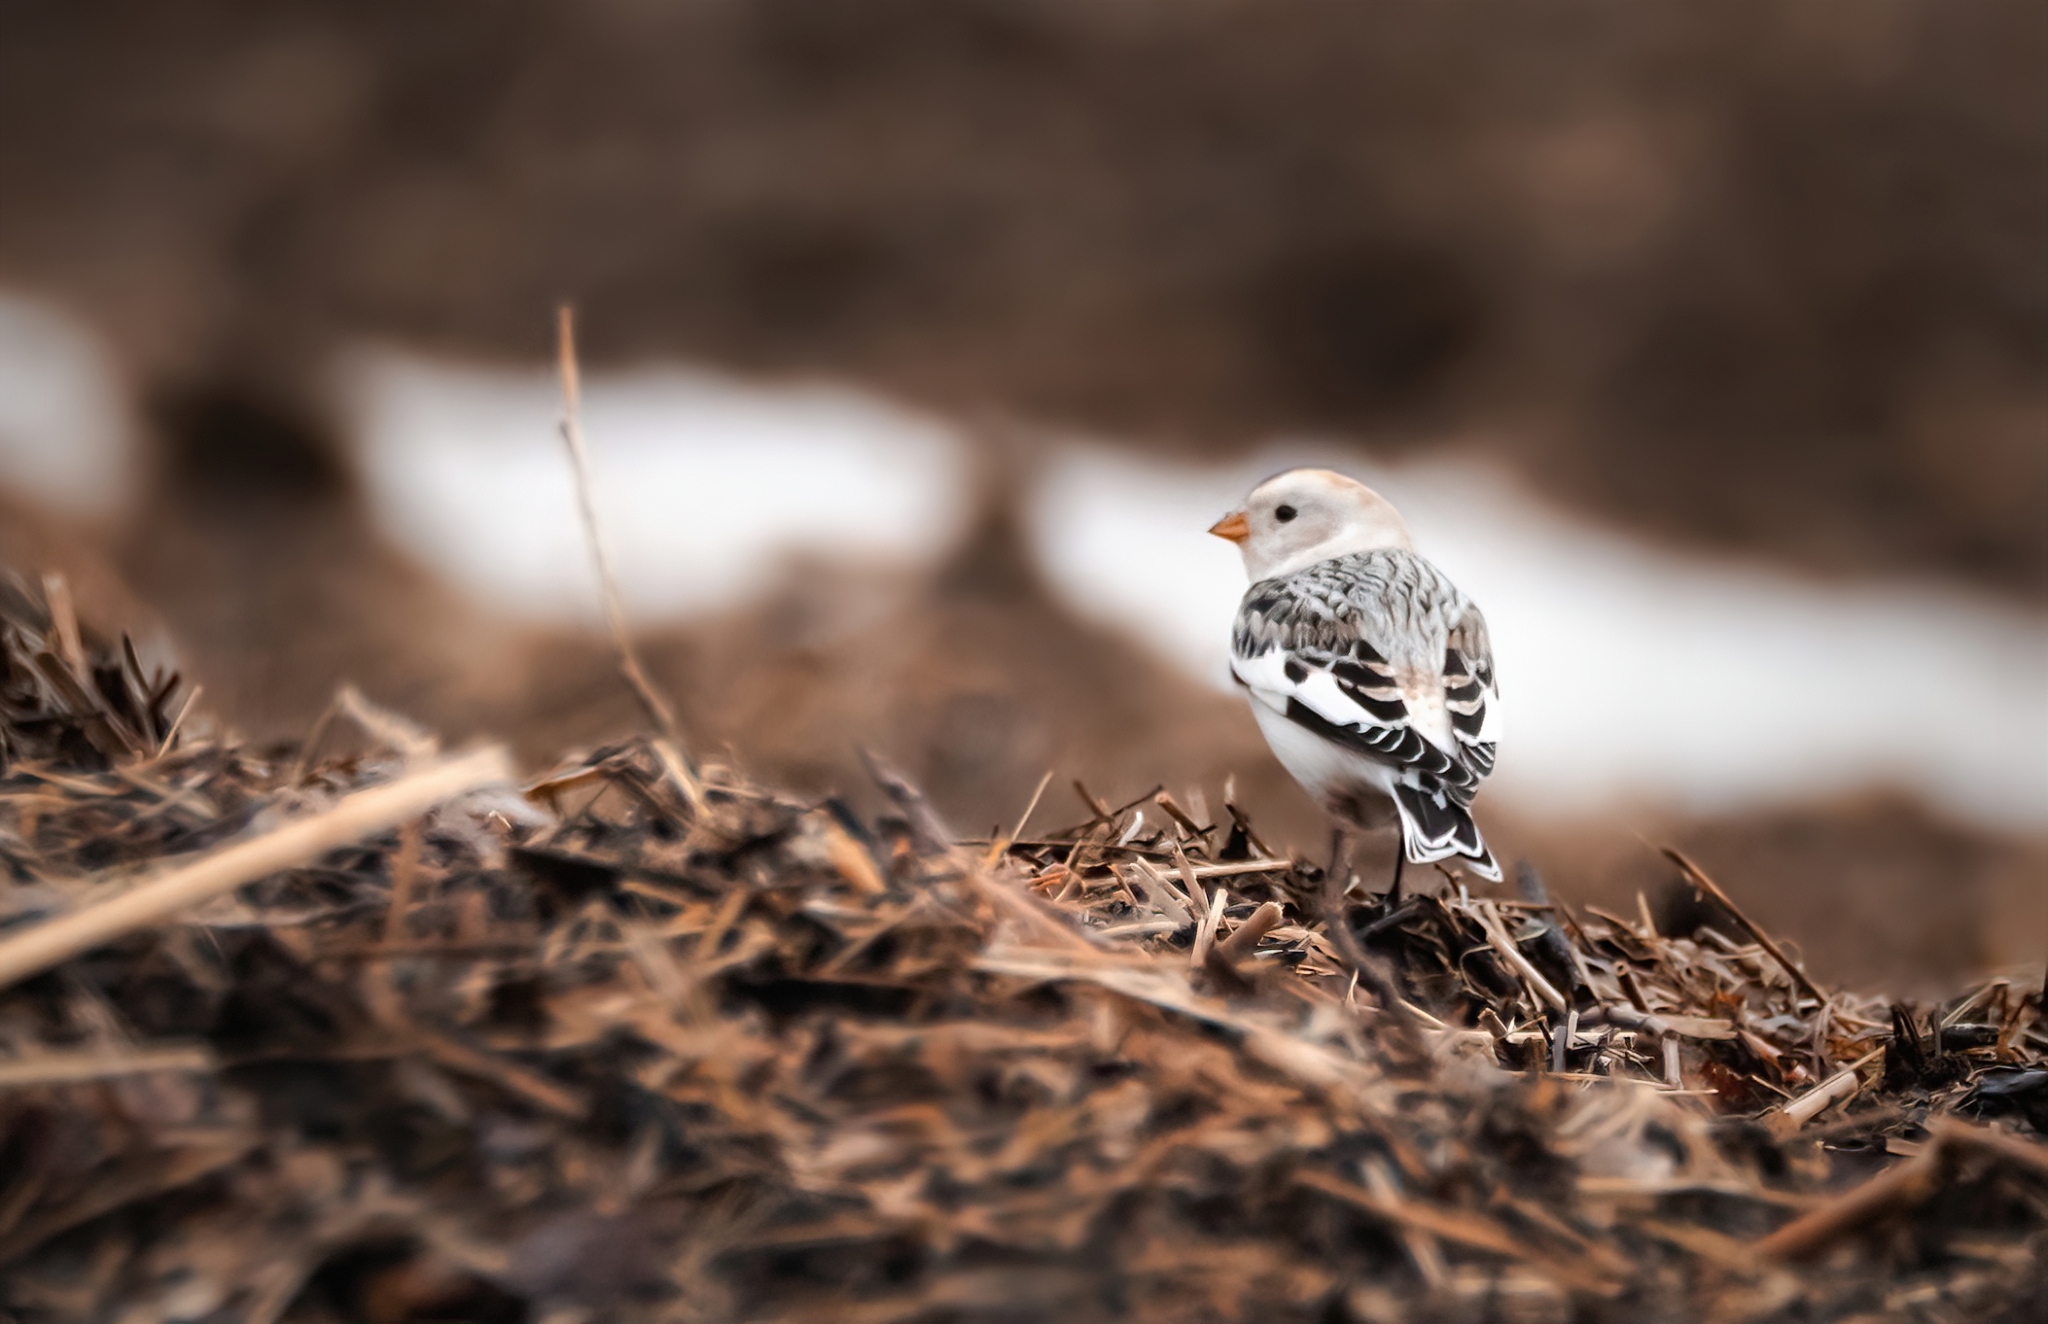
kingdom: Animalia
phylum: Chordata
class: Aves
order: Passeriformes
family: Calcariidae
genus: Plectrophenax
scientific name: Plectrophenax nivalis
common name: Snow bunting
